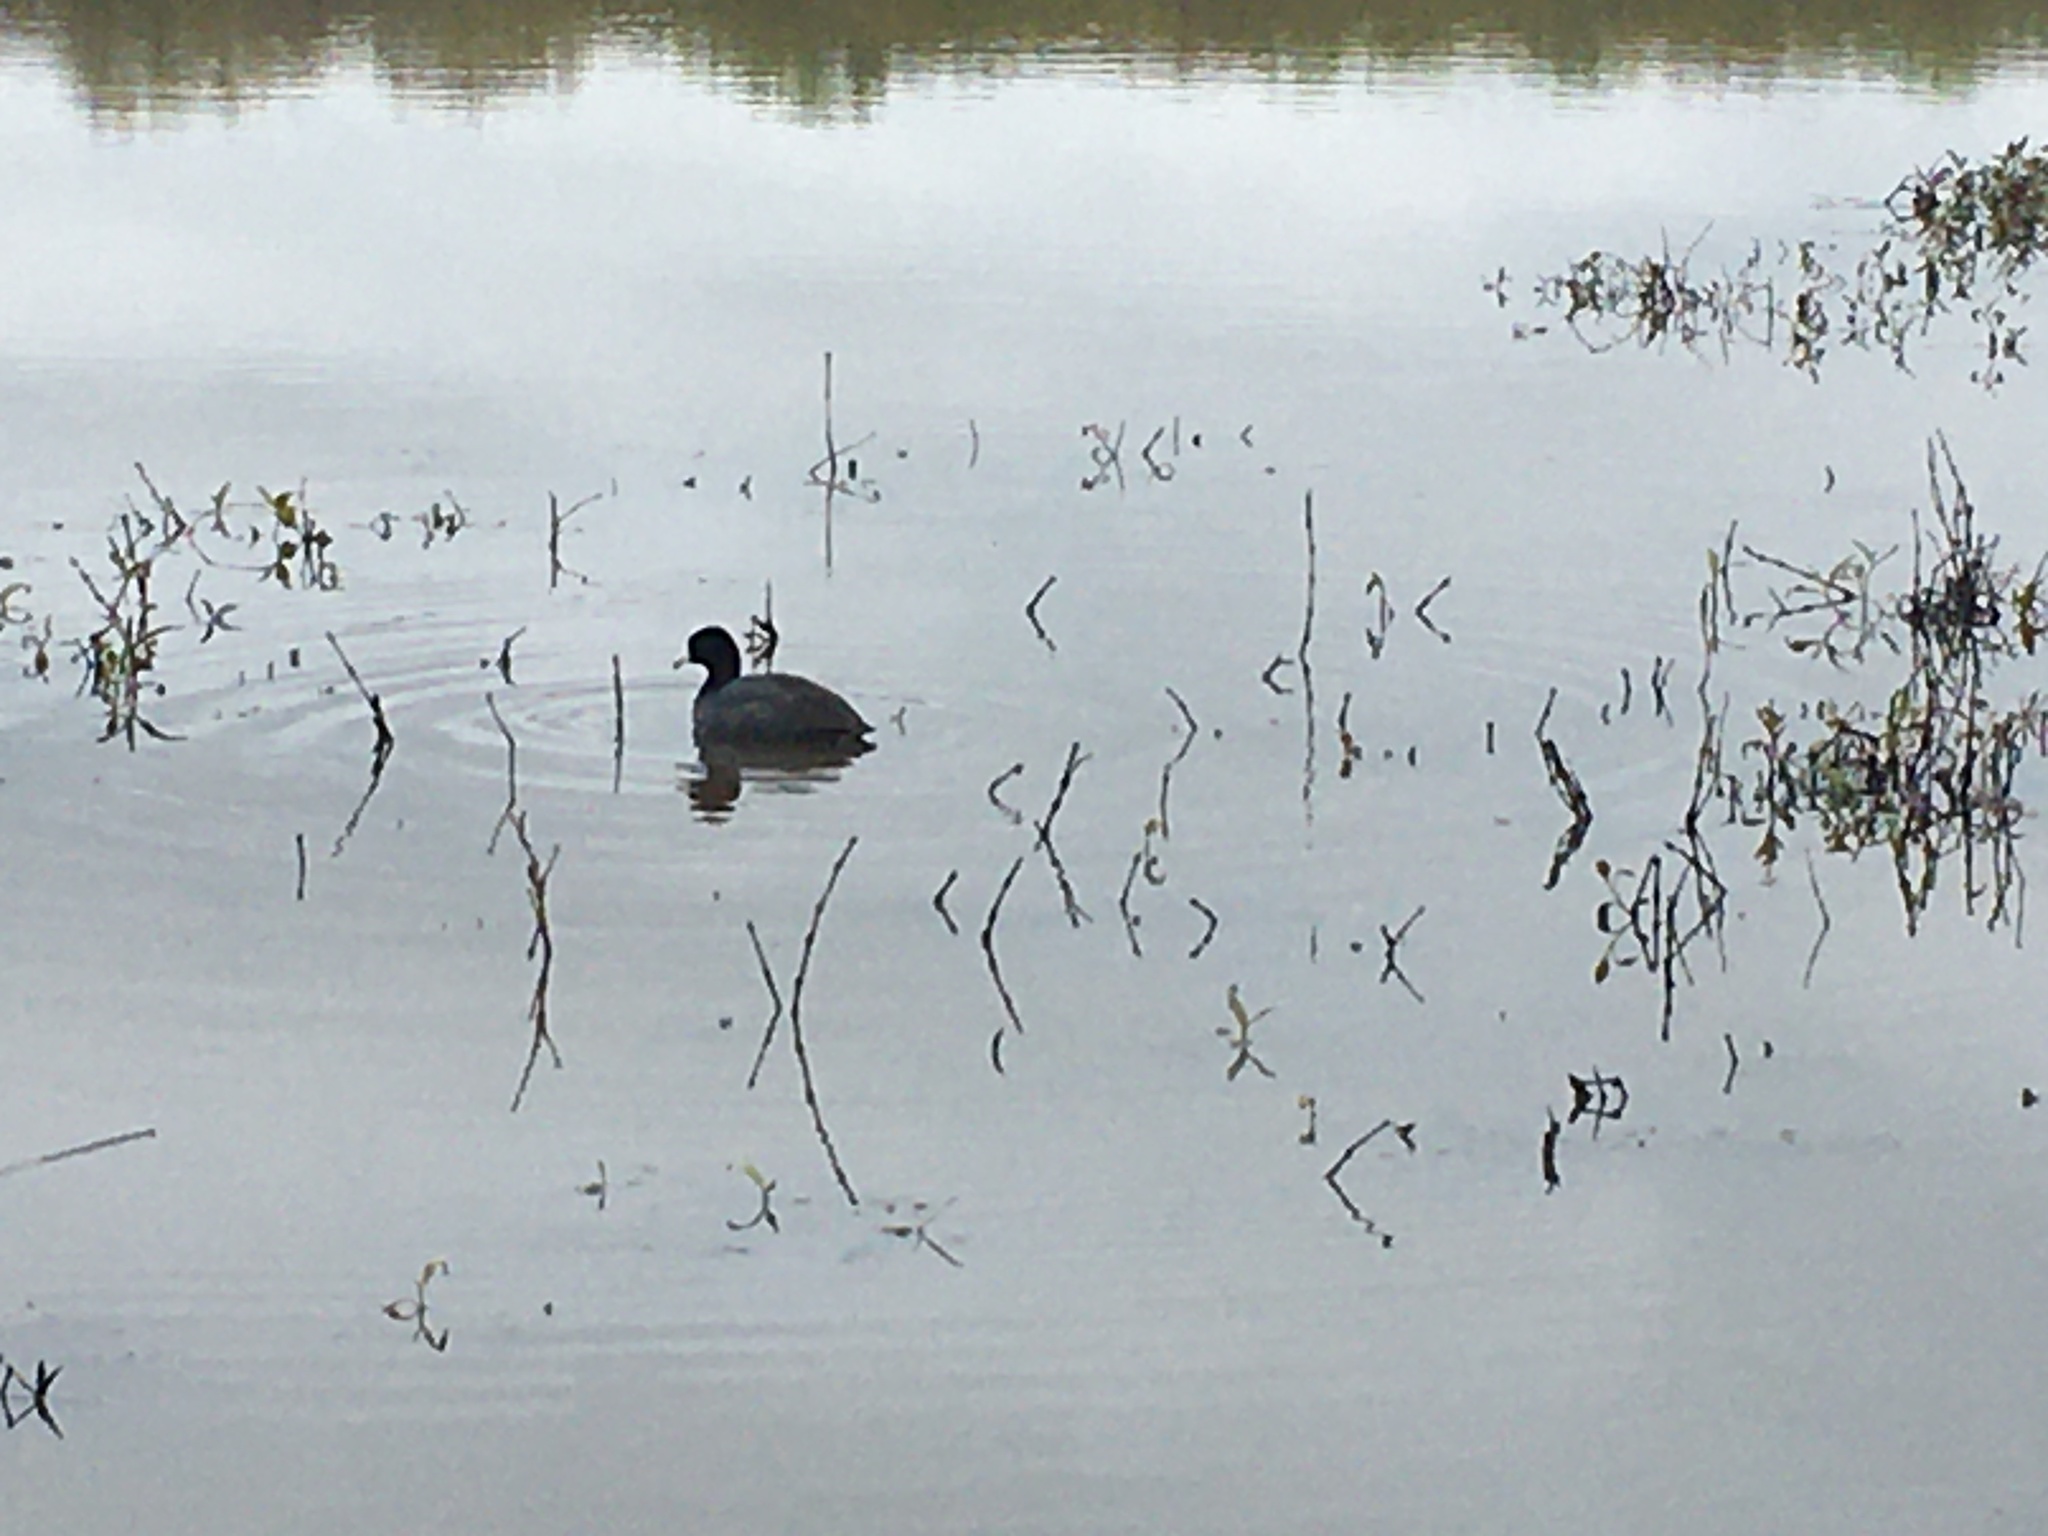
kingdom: Animalia
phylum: Chordata
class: Aves
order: Gruiformes
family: Rallidae
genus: Fulica
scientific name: Fulica americana
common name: American coot
